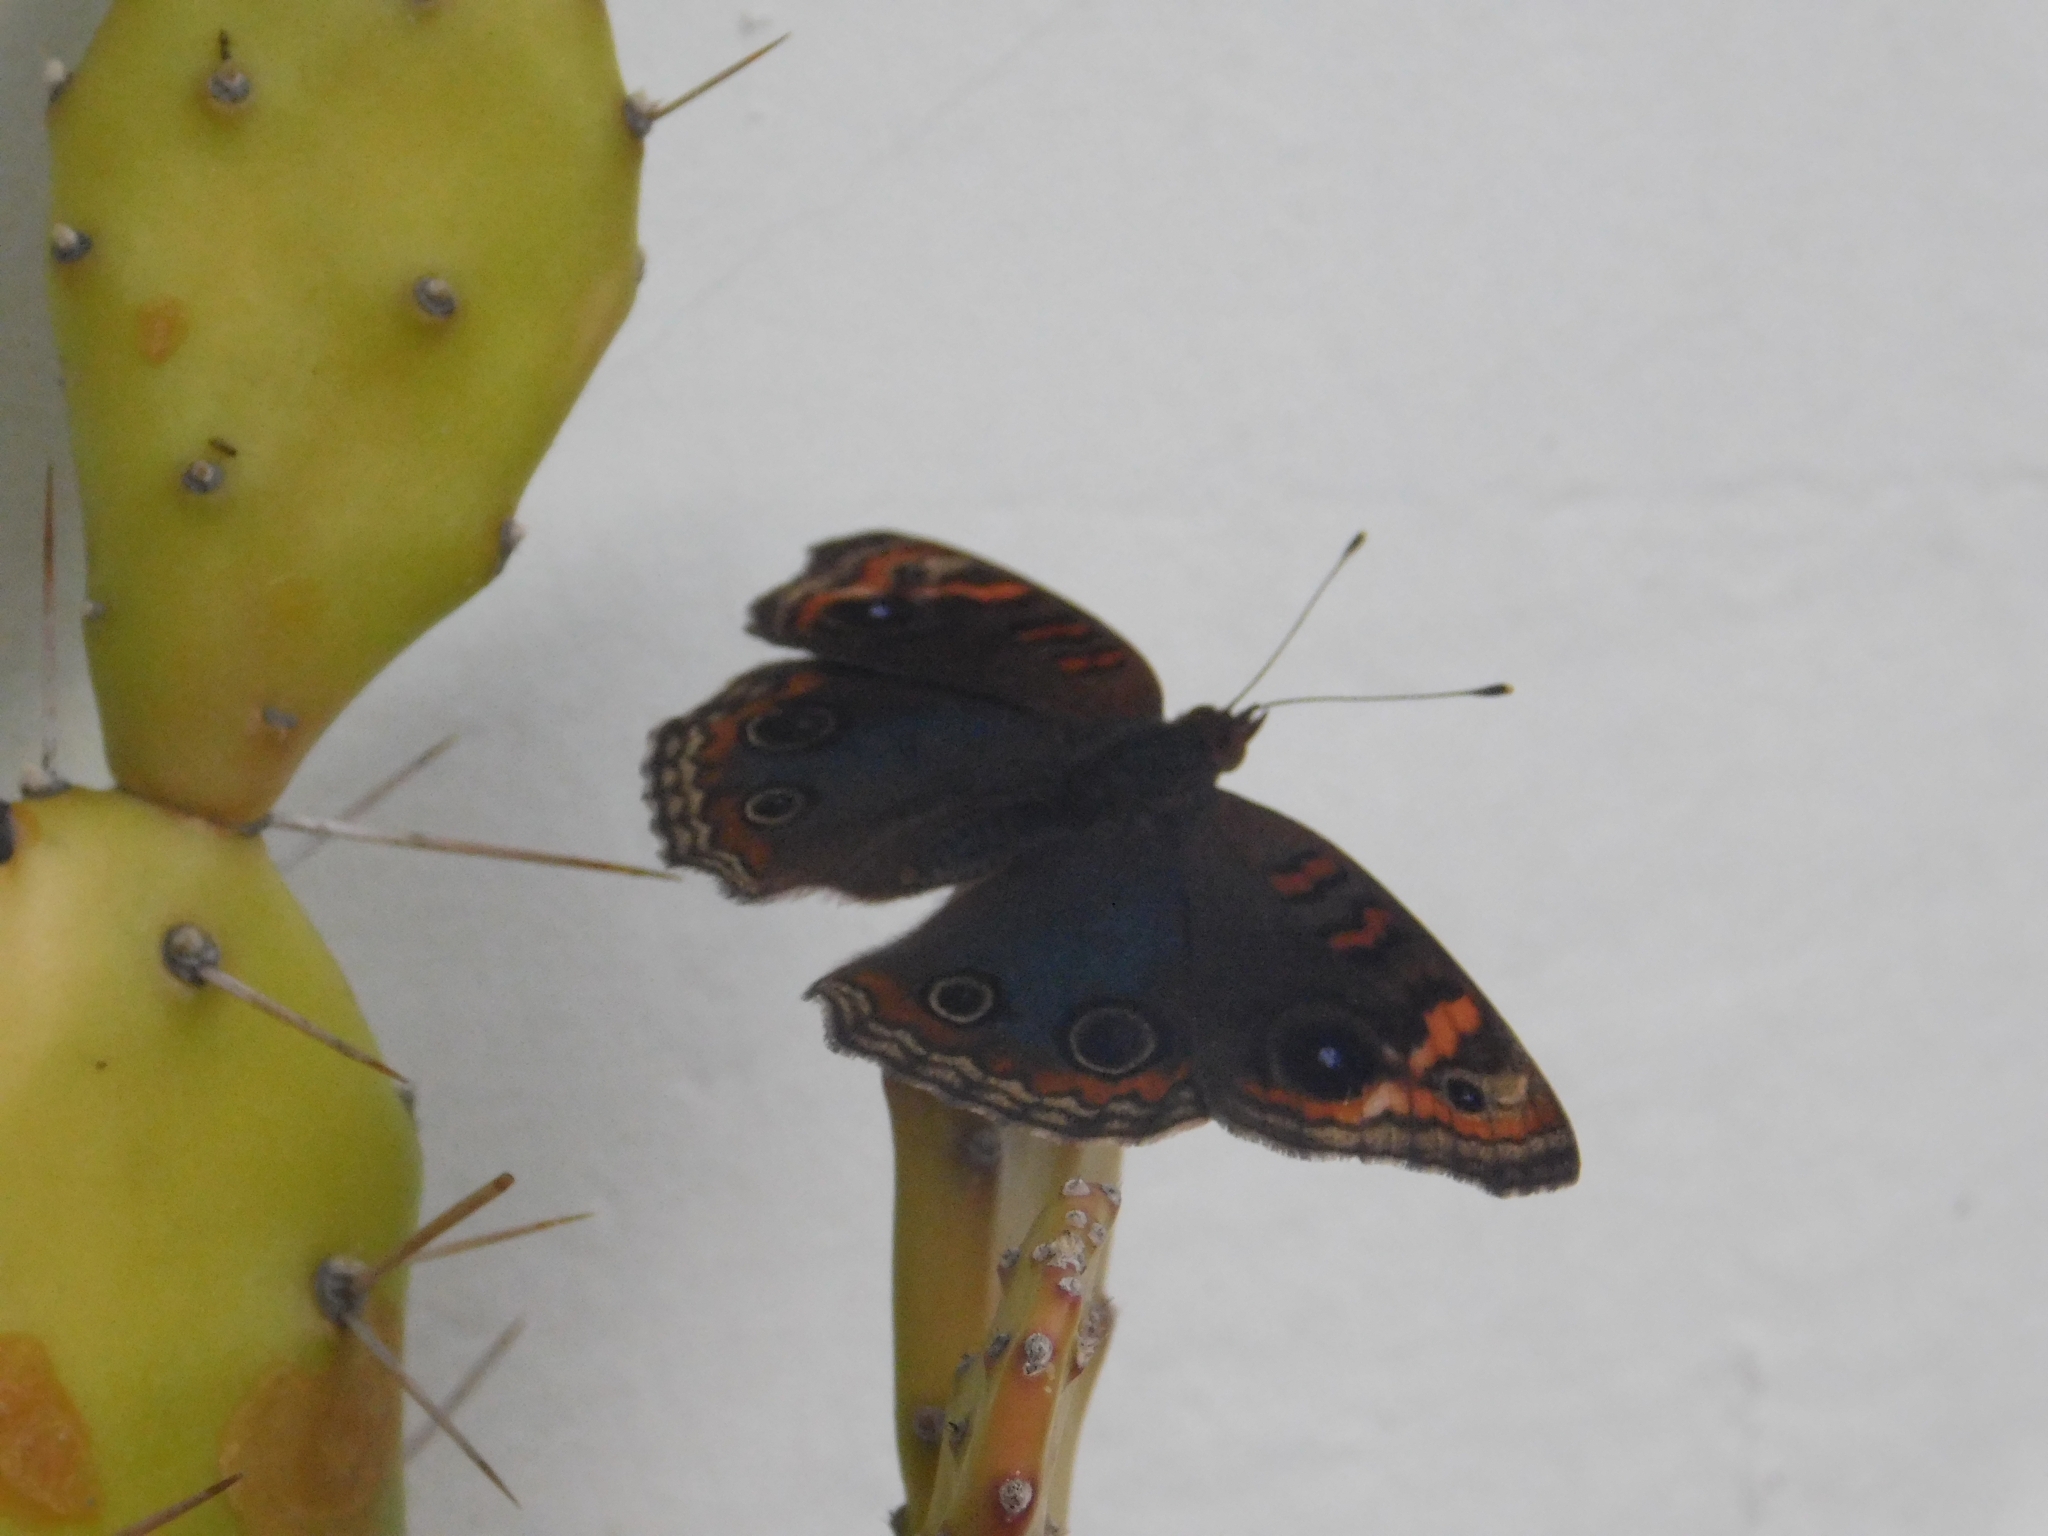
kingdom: Animalia
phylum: Arthropoda
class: Insecta
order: Lepidoptera
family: Nymphalidae
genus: Junonia
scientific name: Junonia lavinia
